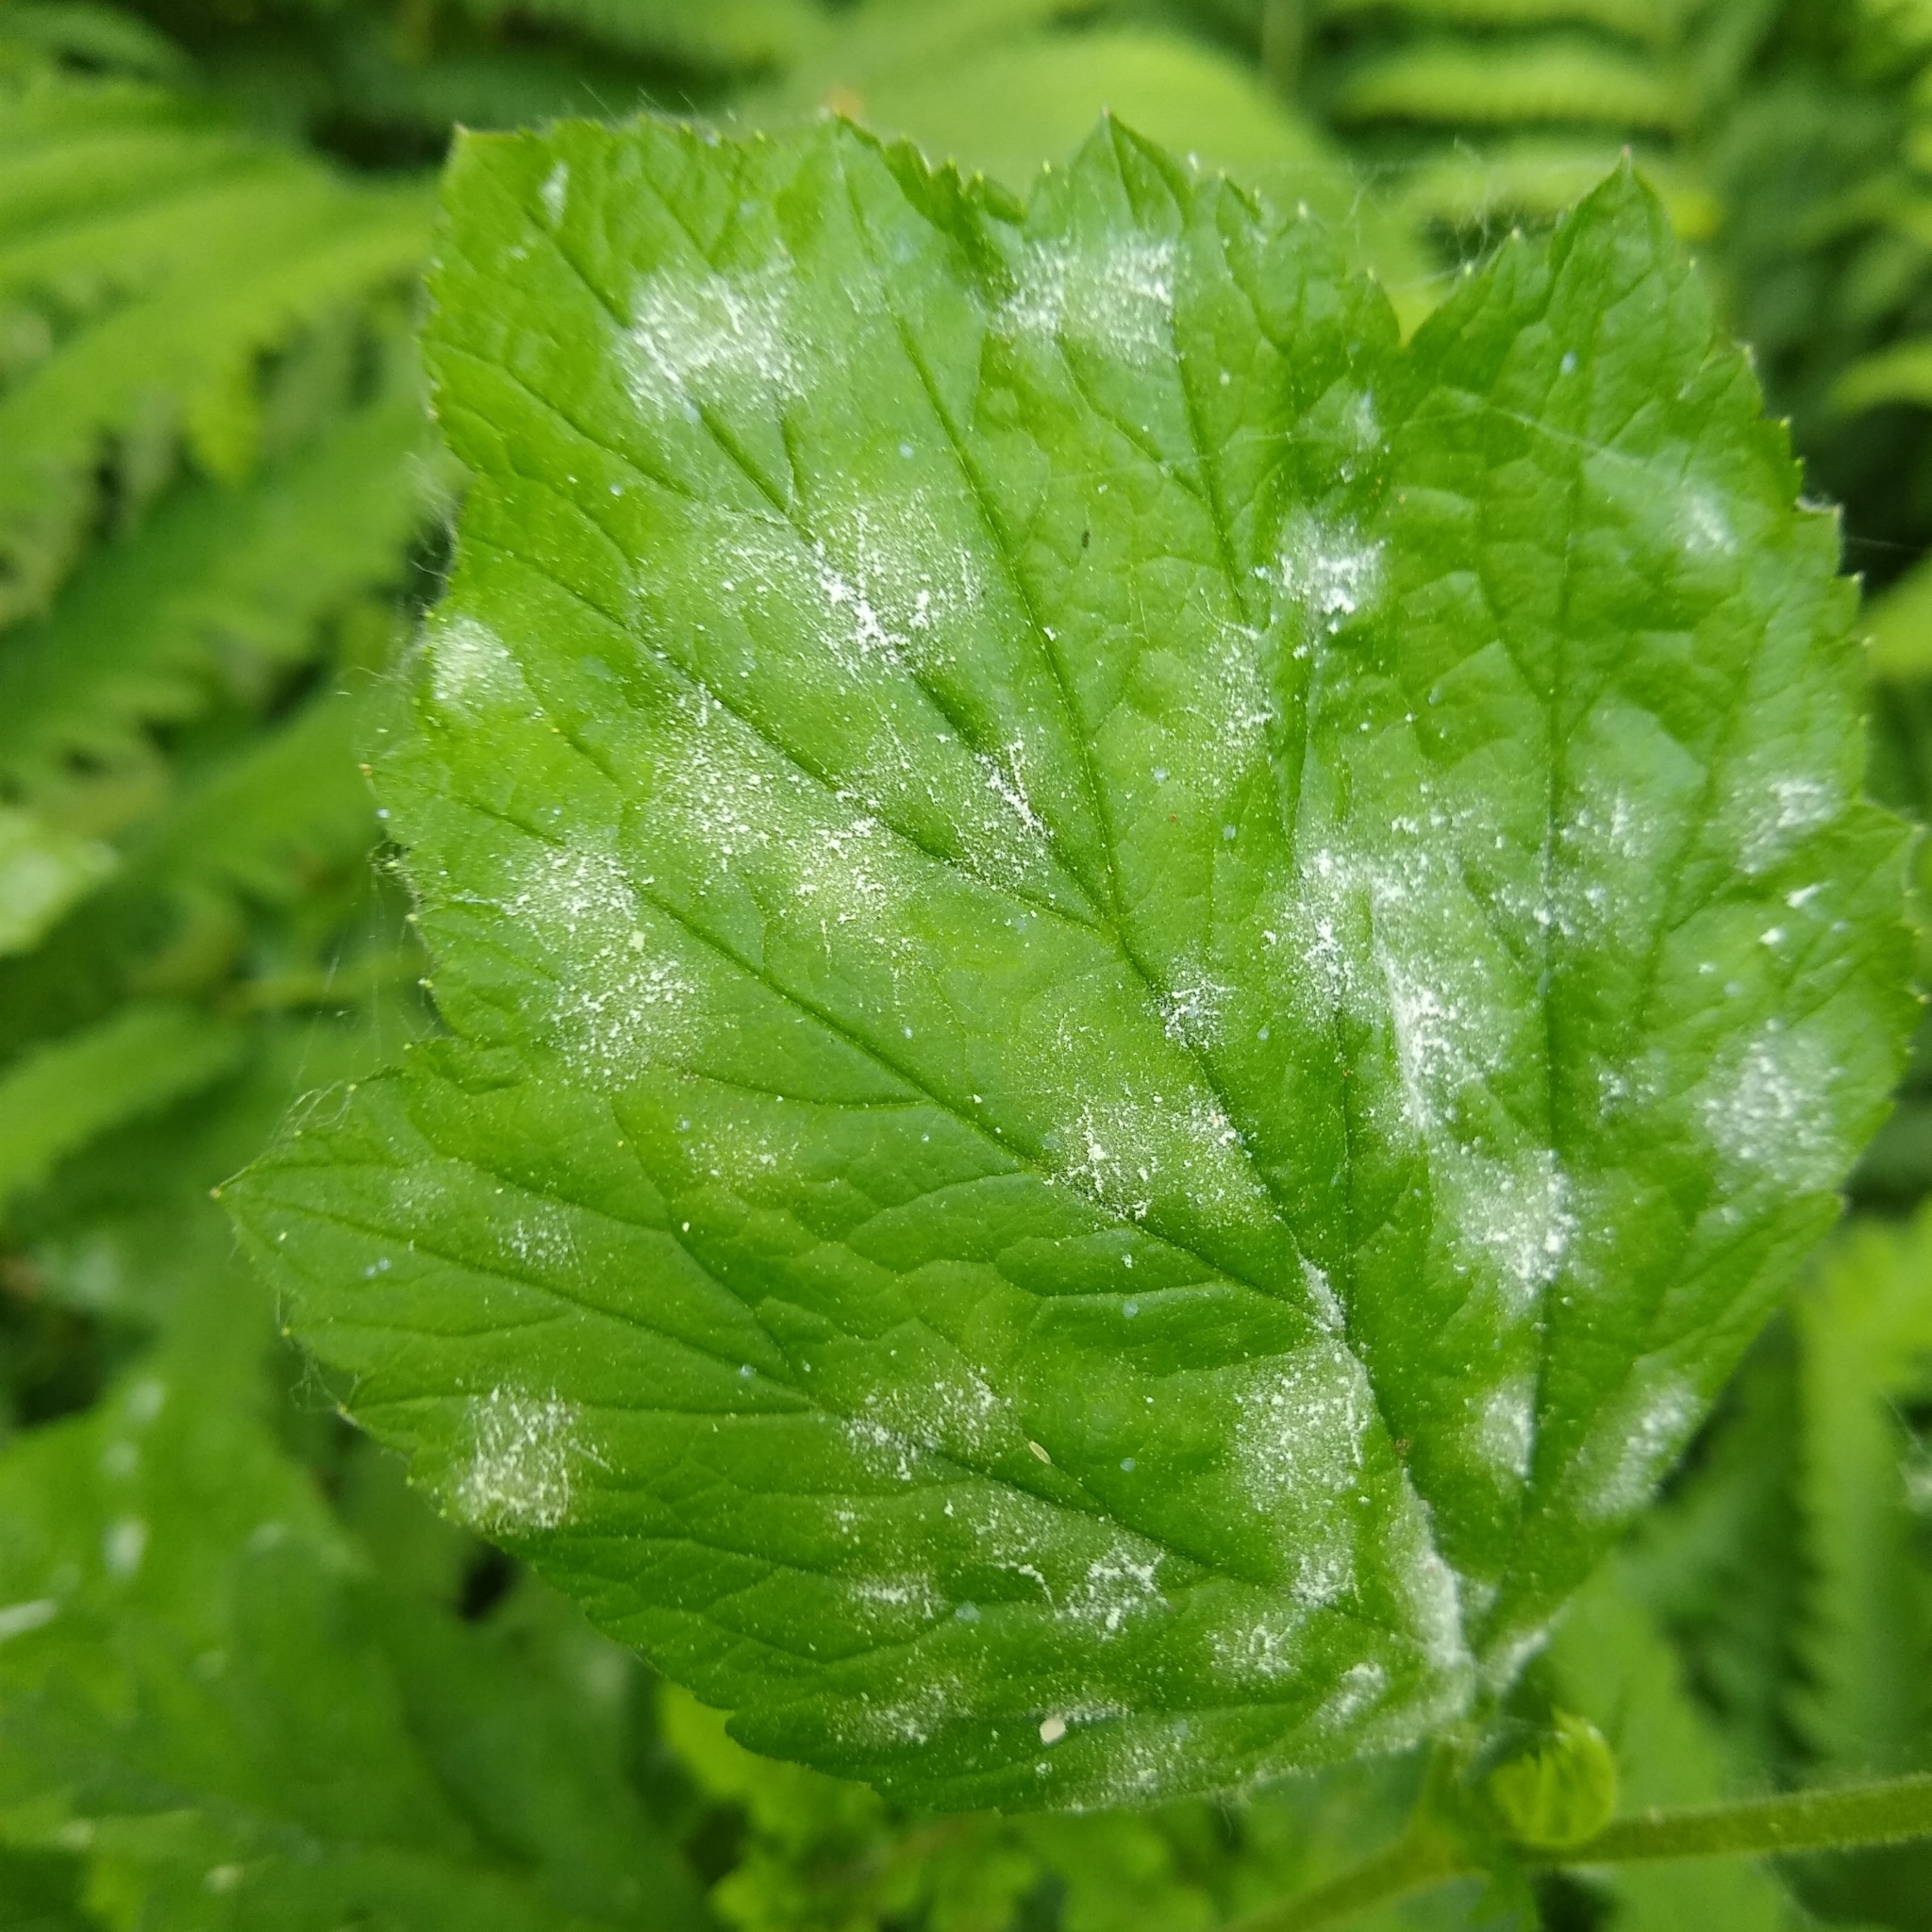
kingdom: Plantae
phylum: Tracheophyta
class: Magnoliopsida
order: Rosales
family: Rosaceae
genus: Geum
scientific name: Geum canadense
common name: White avens
